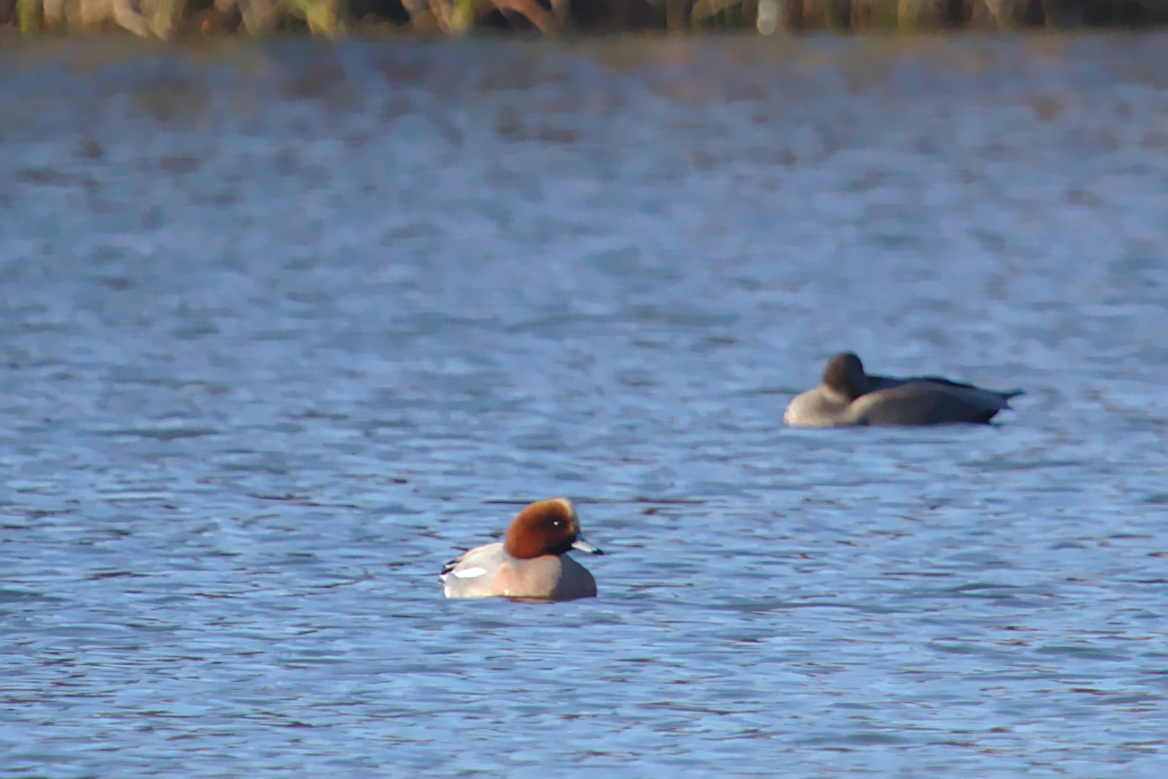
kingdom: Animalia
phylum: Chordata
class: Aves
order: Anseriformes
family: Anatidae
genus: Mareca
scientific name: Mareca penelope
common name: Eurasian wigeon
